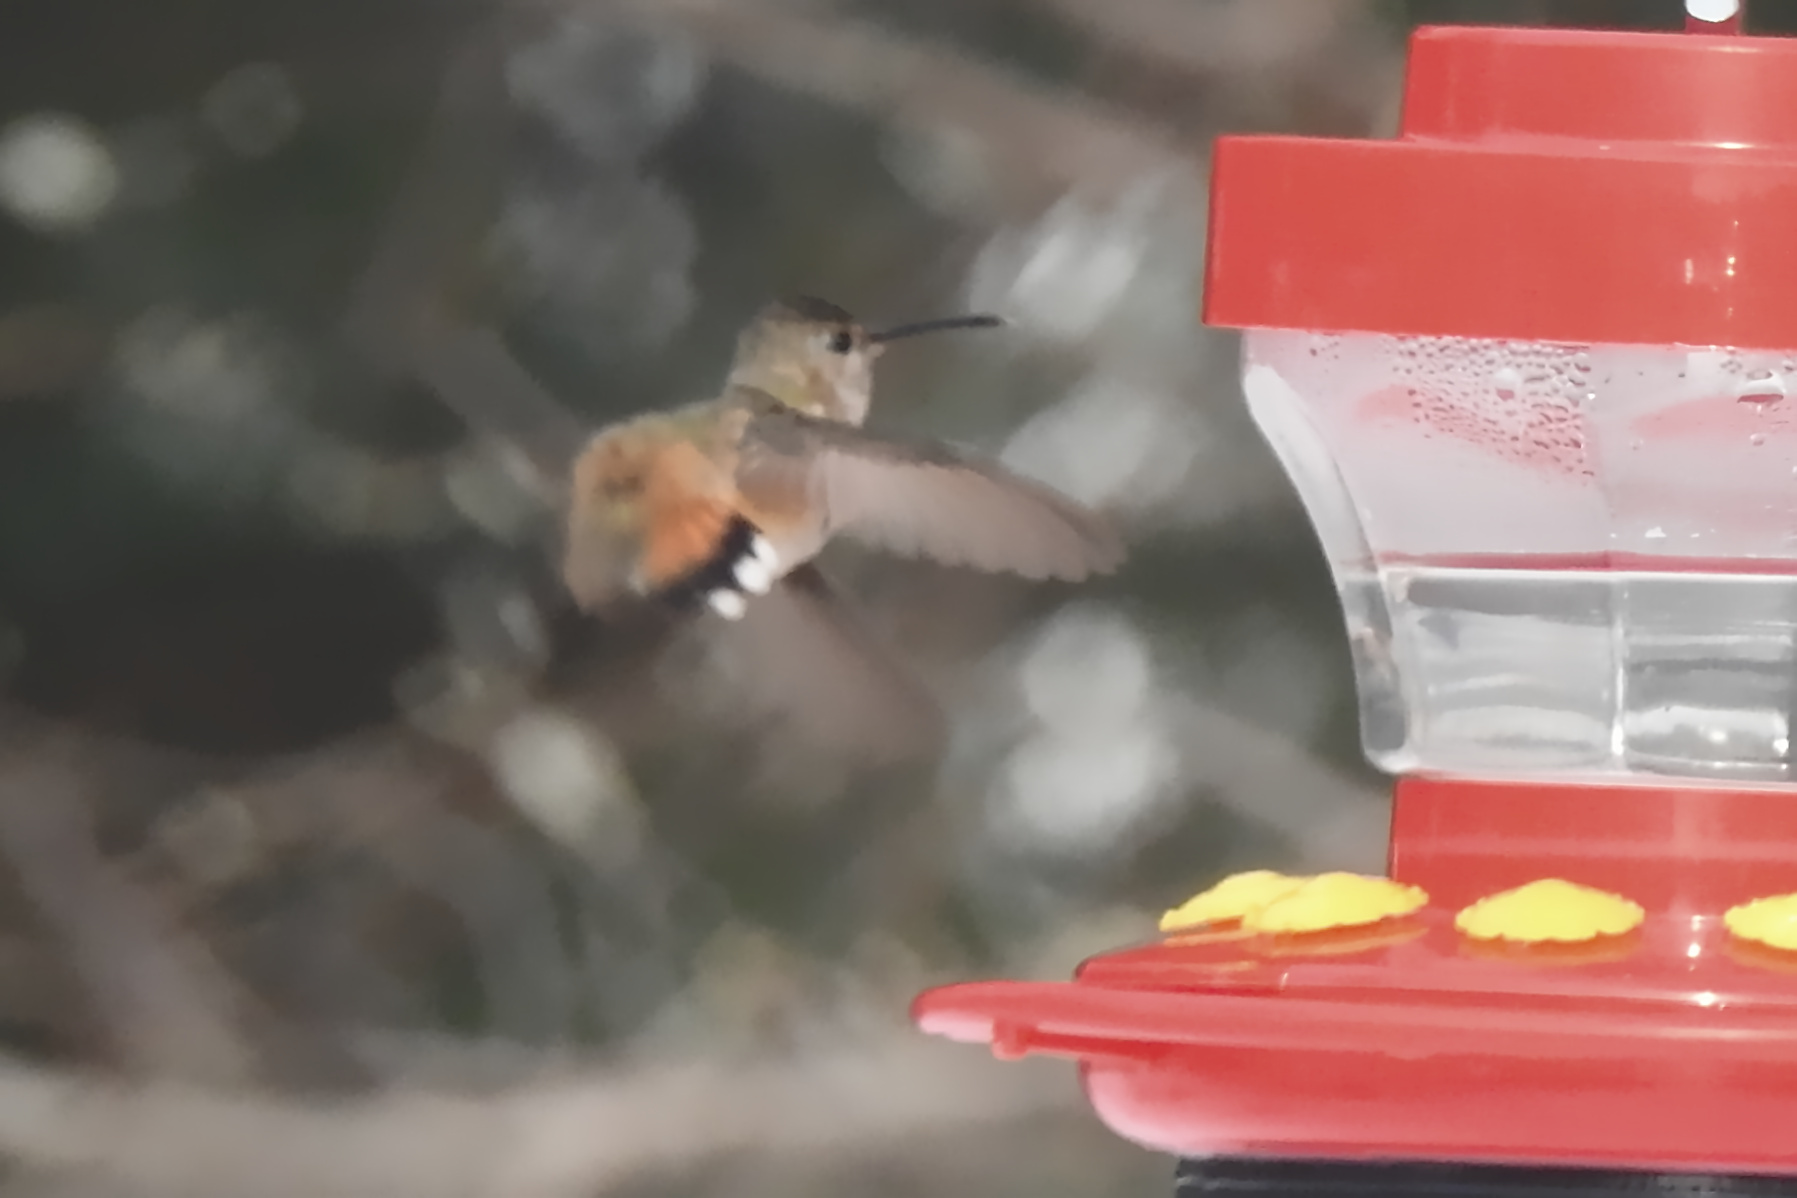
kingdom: Animalia
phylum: Chordata
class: Aves
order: Apodiformes
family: Trochilidae
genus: Selasphorus
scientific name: Selasphorus sasin
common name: Allen's hummingbird
